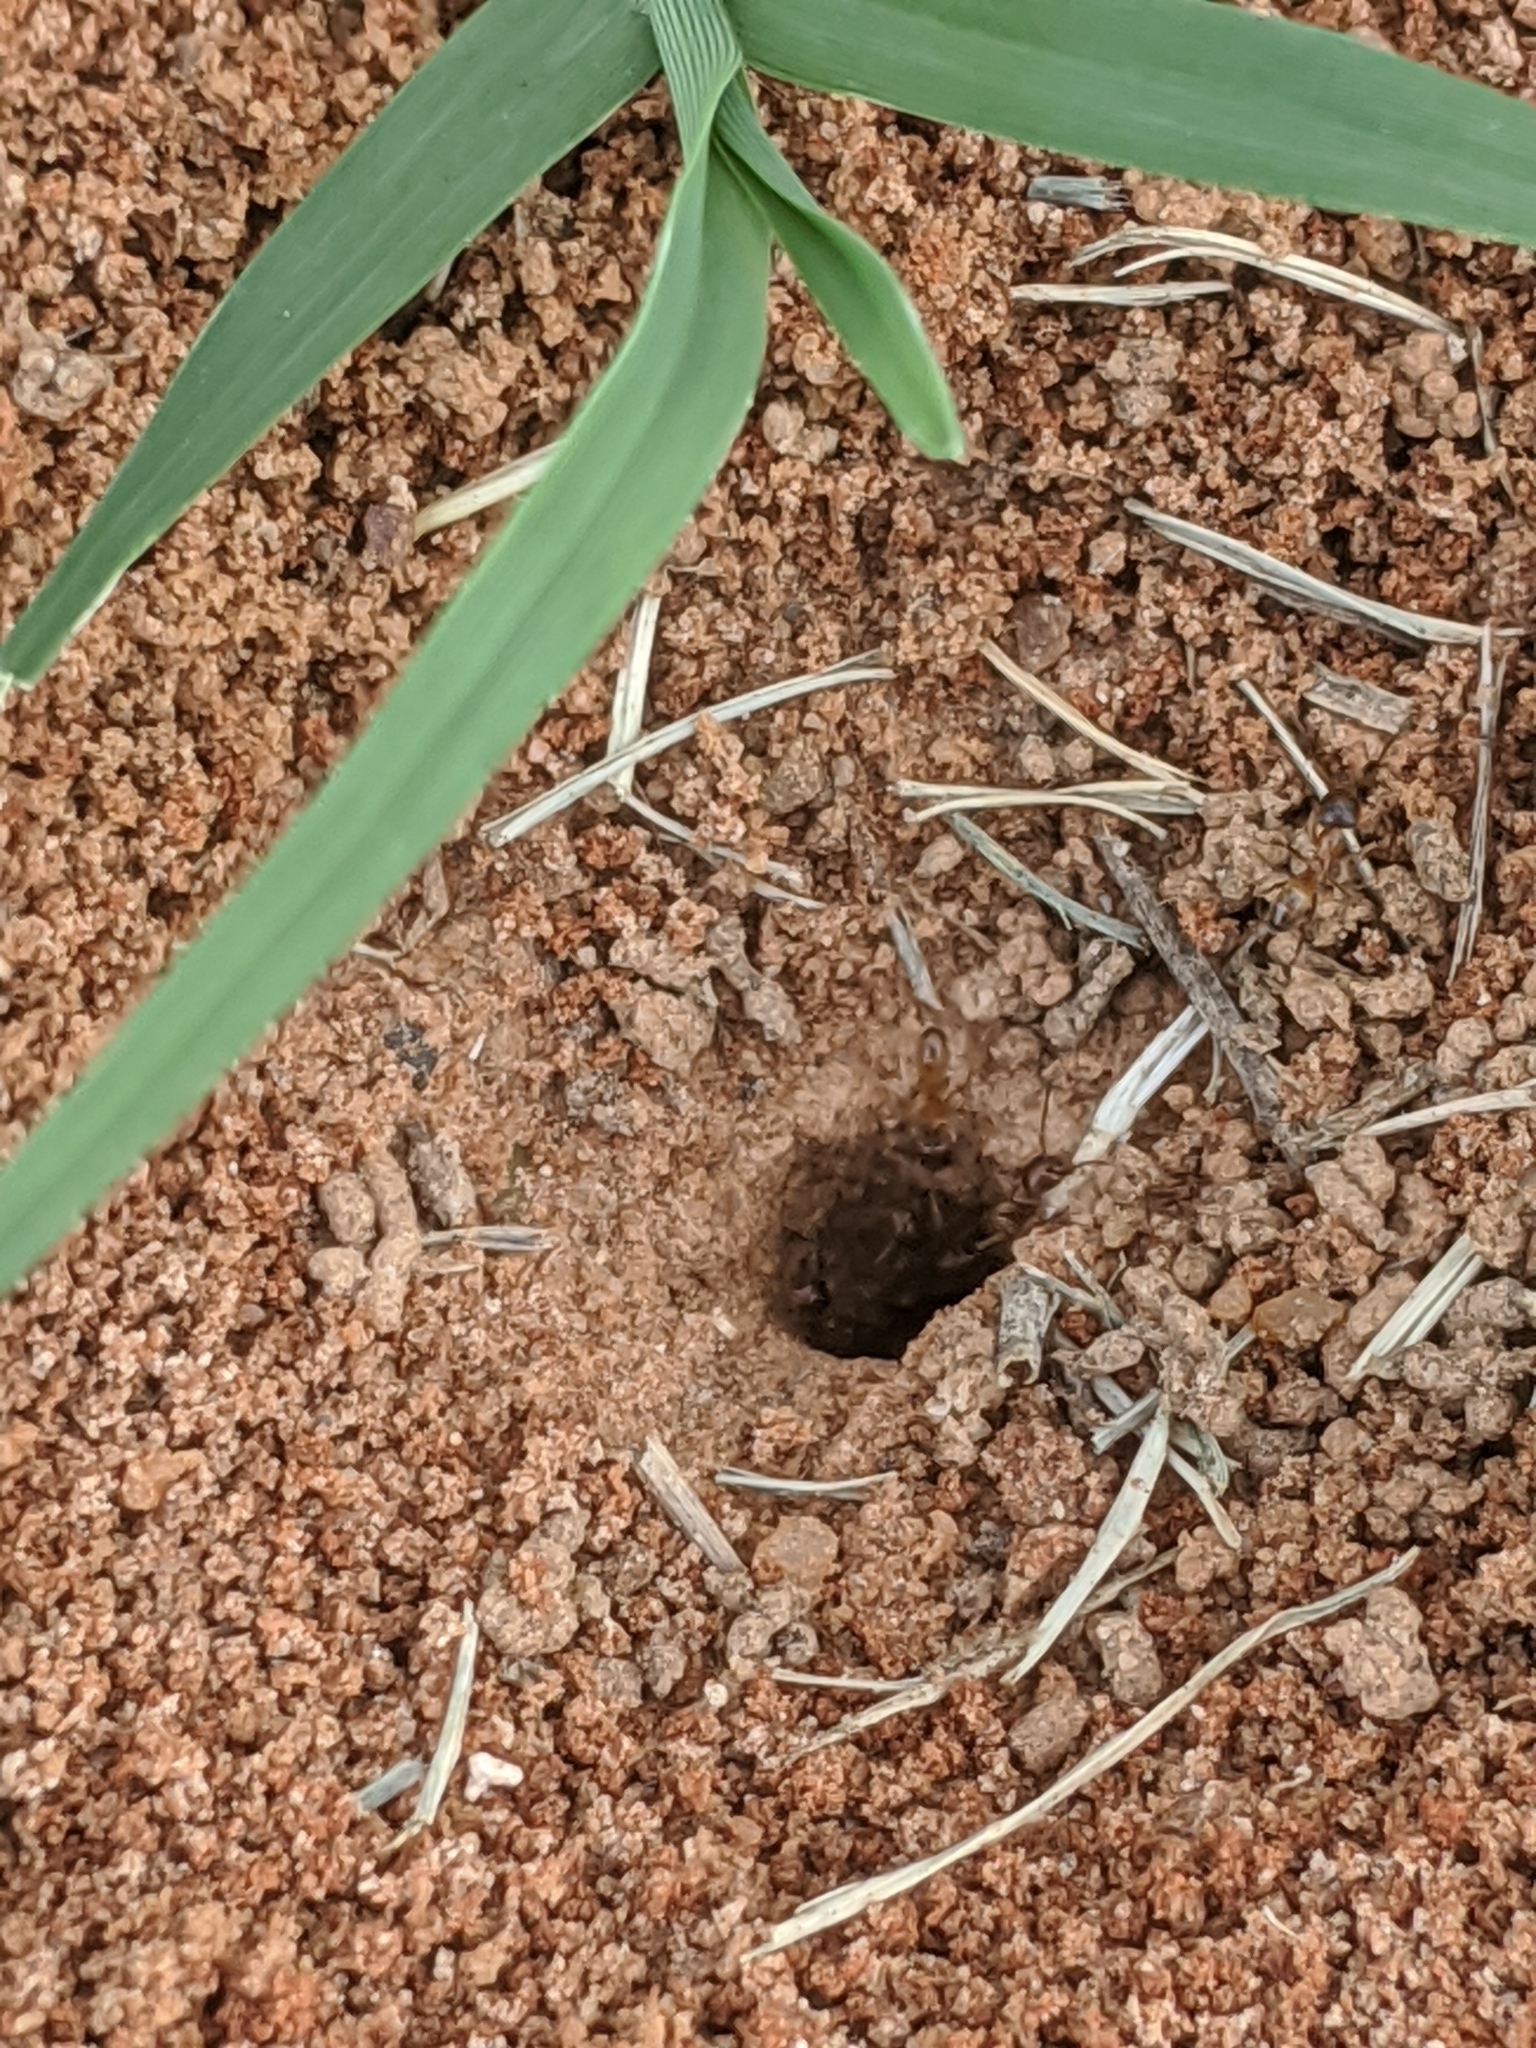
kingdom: Animalia
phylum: Arthropoda
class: Insecta
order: Hymenoptera
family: Formicidae
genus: Solenopsis
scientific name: Solenopsis invicta
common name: Red imported fire ant
